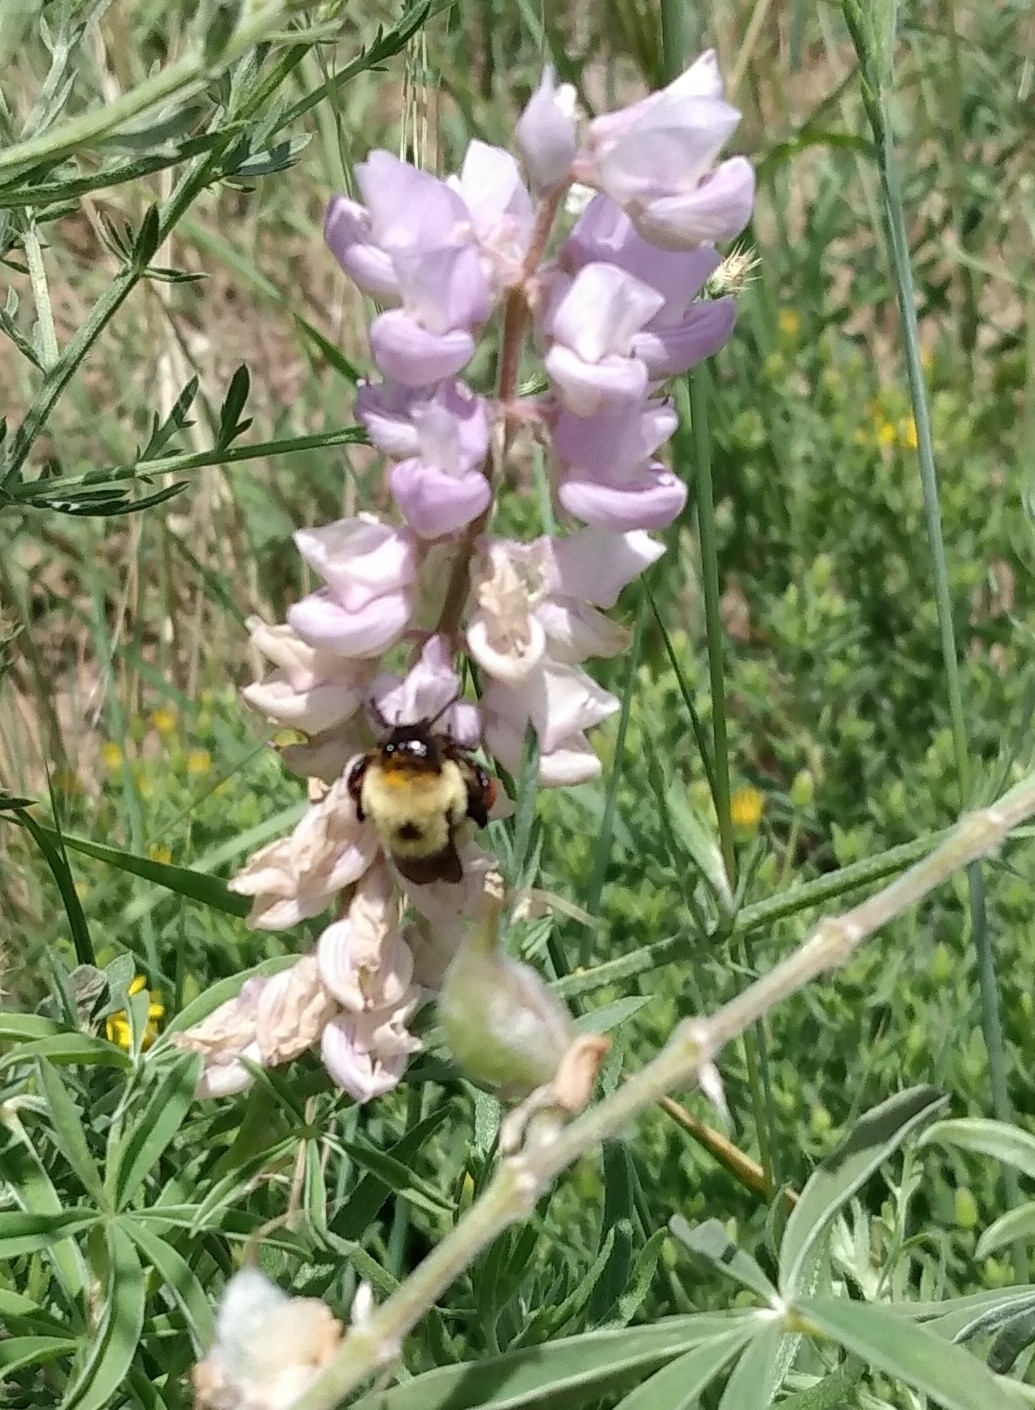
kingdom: Animalia
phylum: Arthropoda
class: Insecta
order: Hymenoptera
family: Apidae
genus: Bombus
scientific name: Bombus griseocollis
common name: Brown-belted bumble bee
